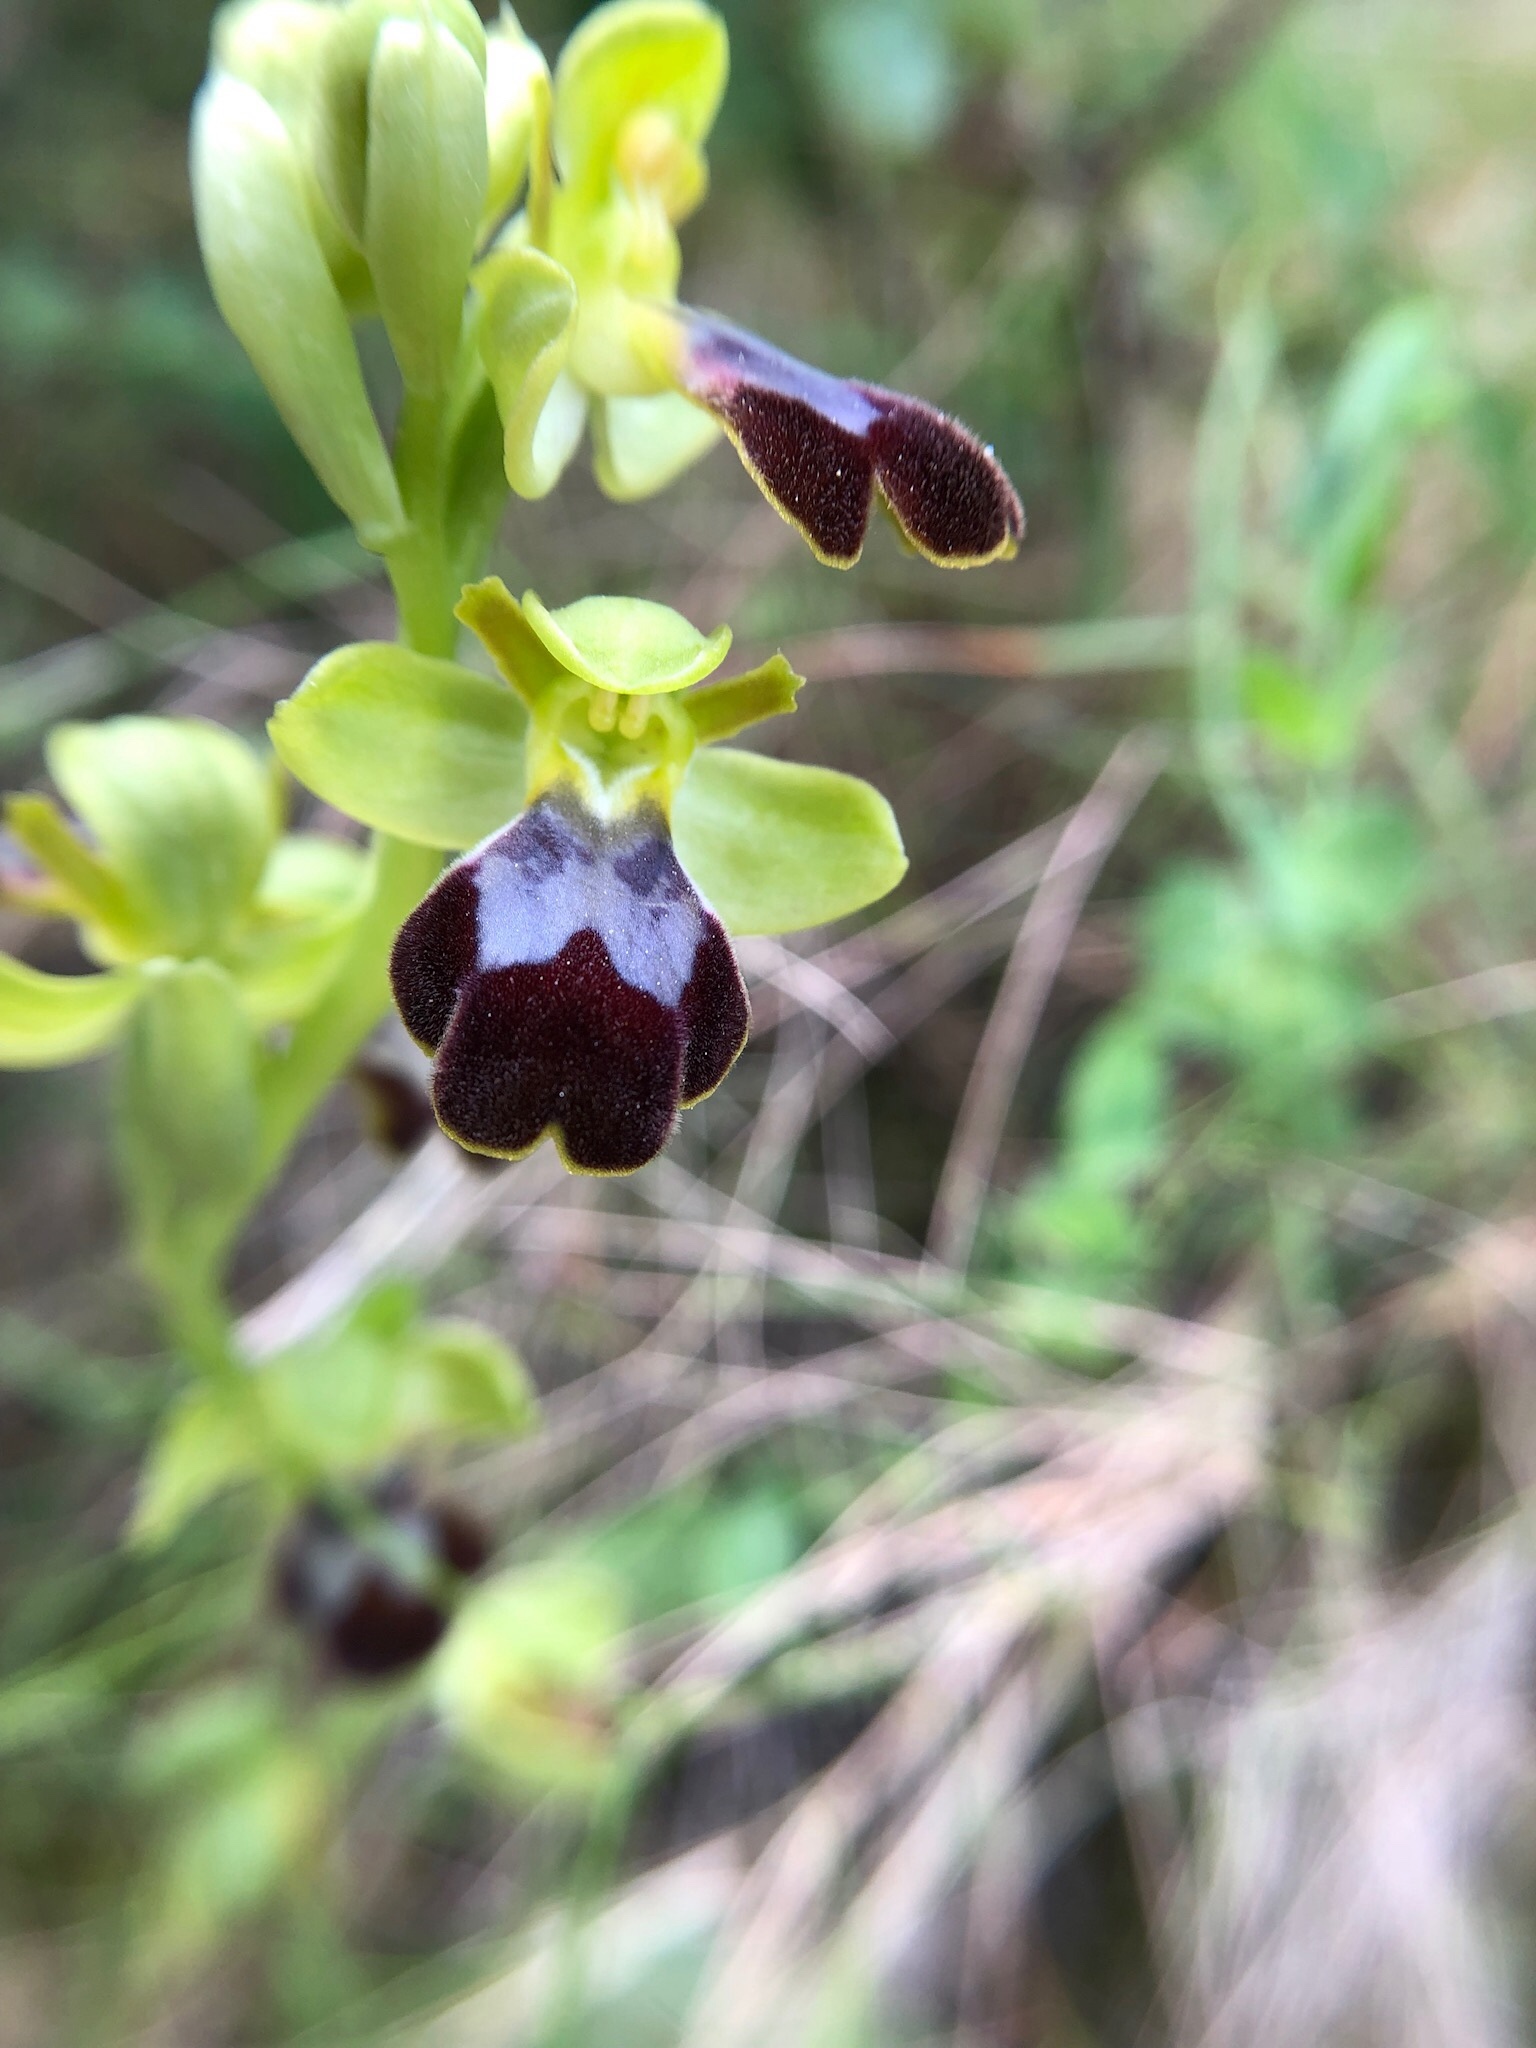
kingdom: Plantae
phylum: Tracheophyta
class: Liliopsida
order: Asparagales
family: Orchidaceae
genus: Ophrys
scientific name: Ophrys fusca
